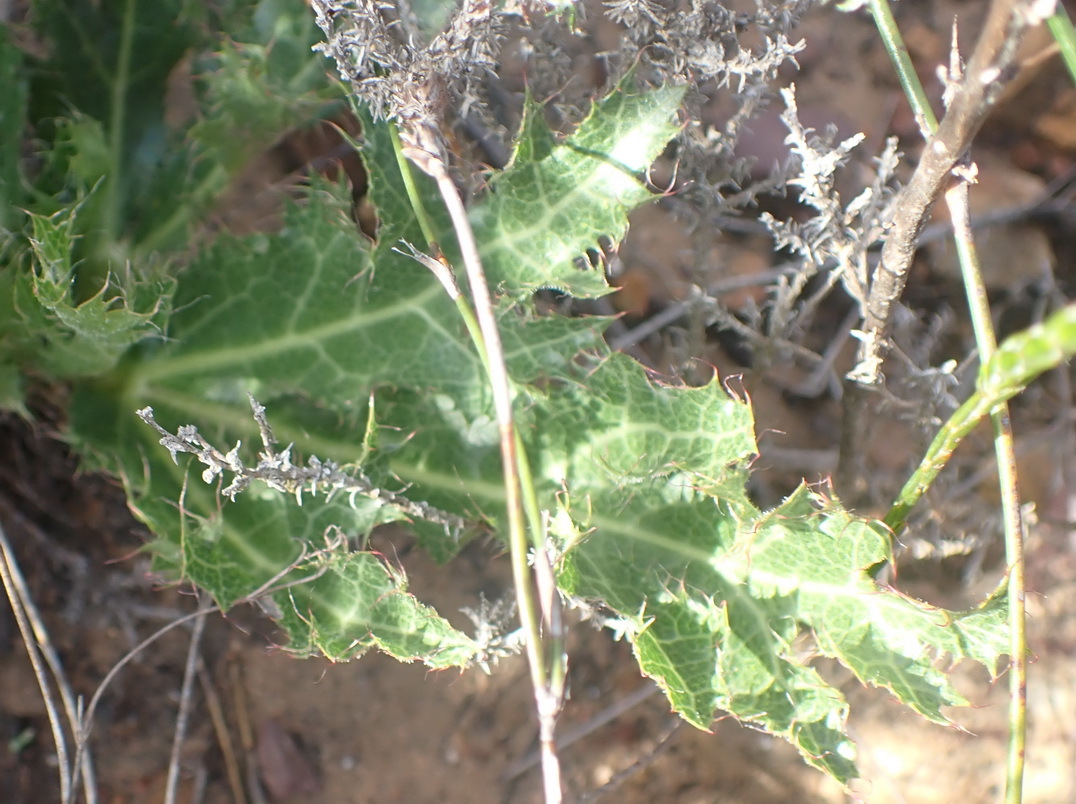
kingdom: Plantae
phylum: Tracheophyta
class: Magnoliopsida
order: Apiales
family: Apiaceae
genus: Lichtensteinia
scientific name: Lichtensteinia lacera
